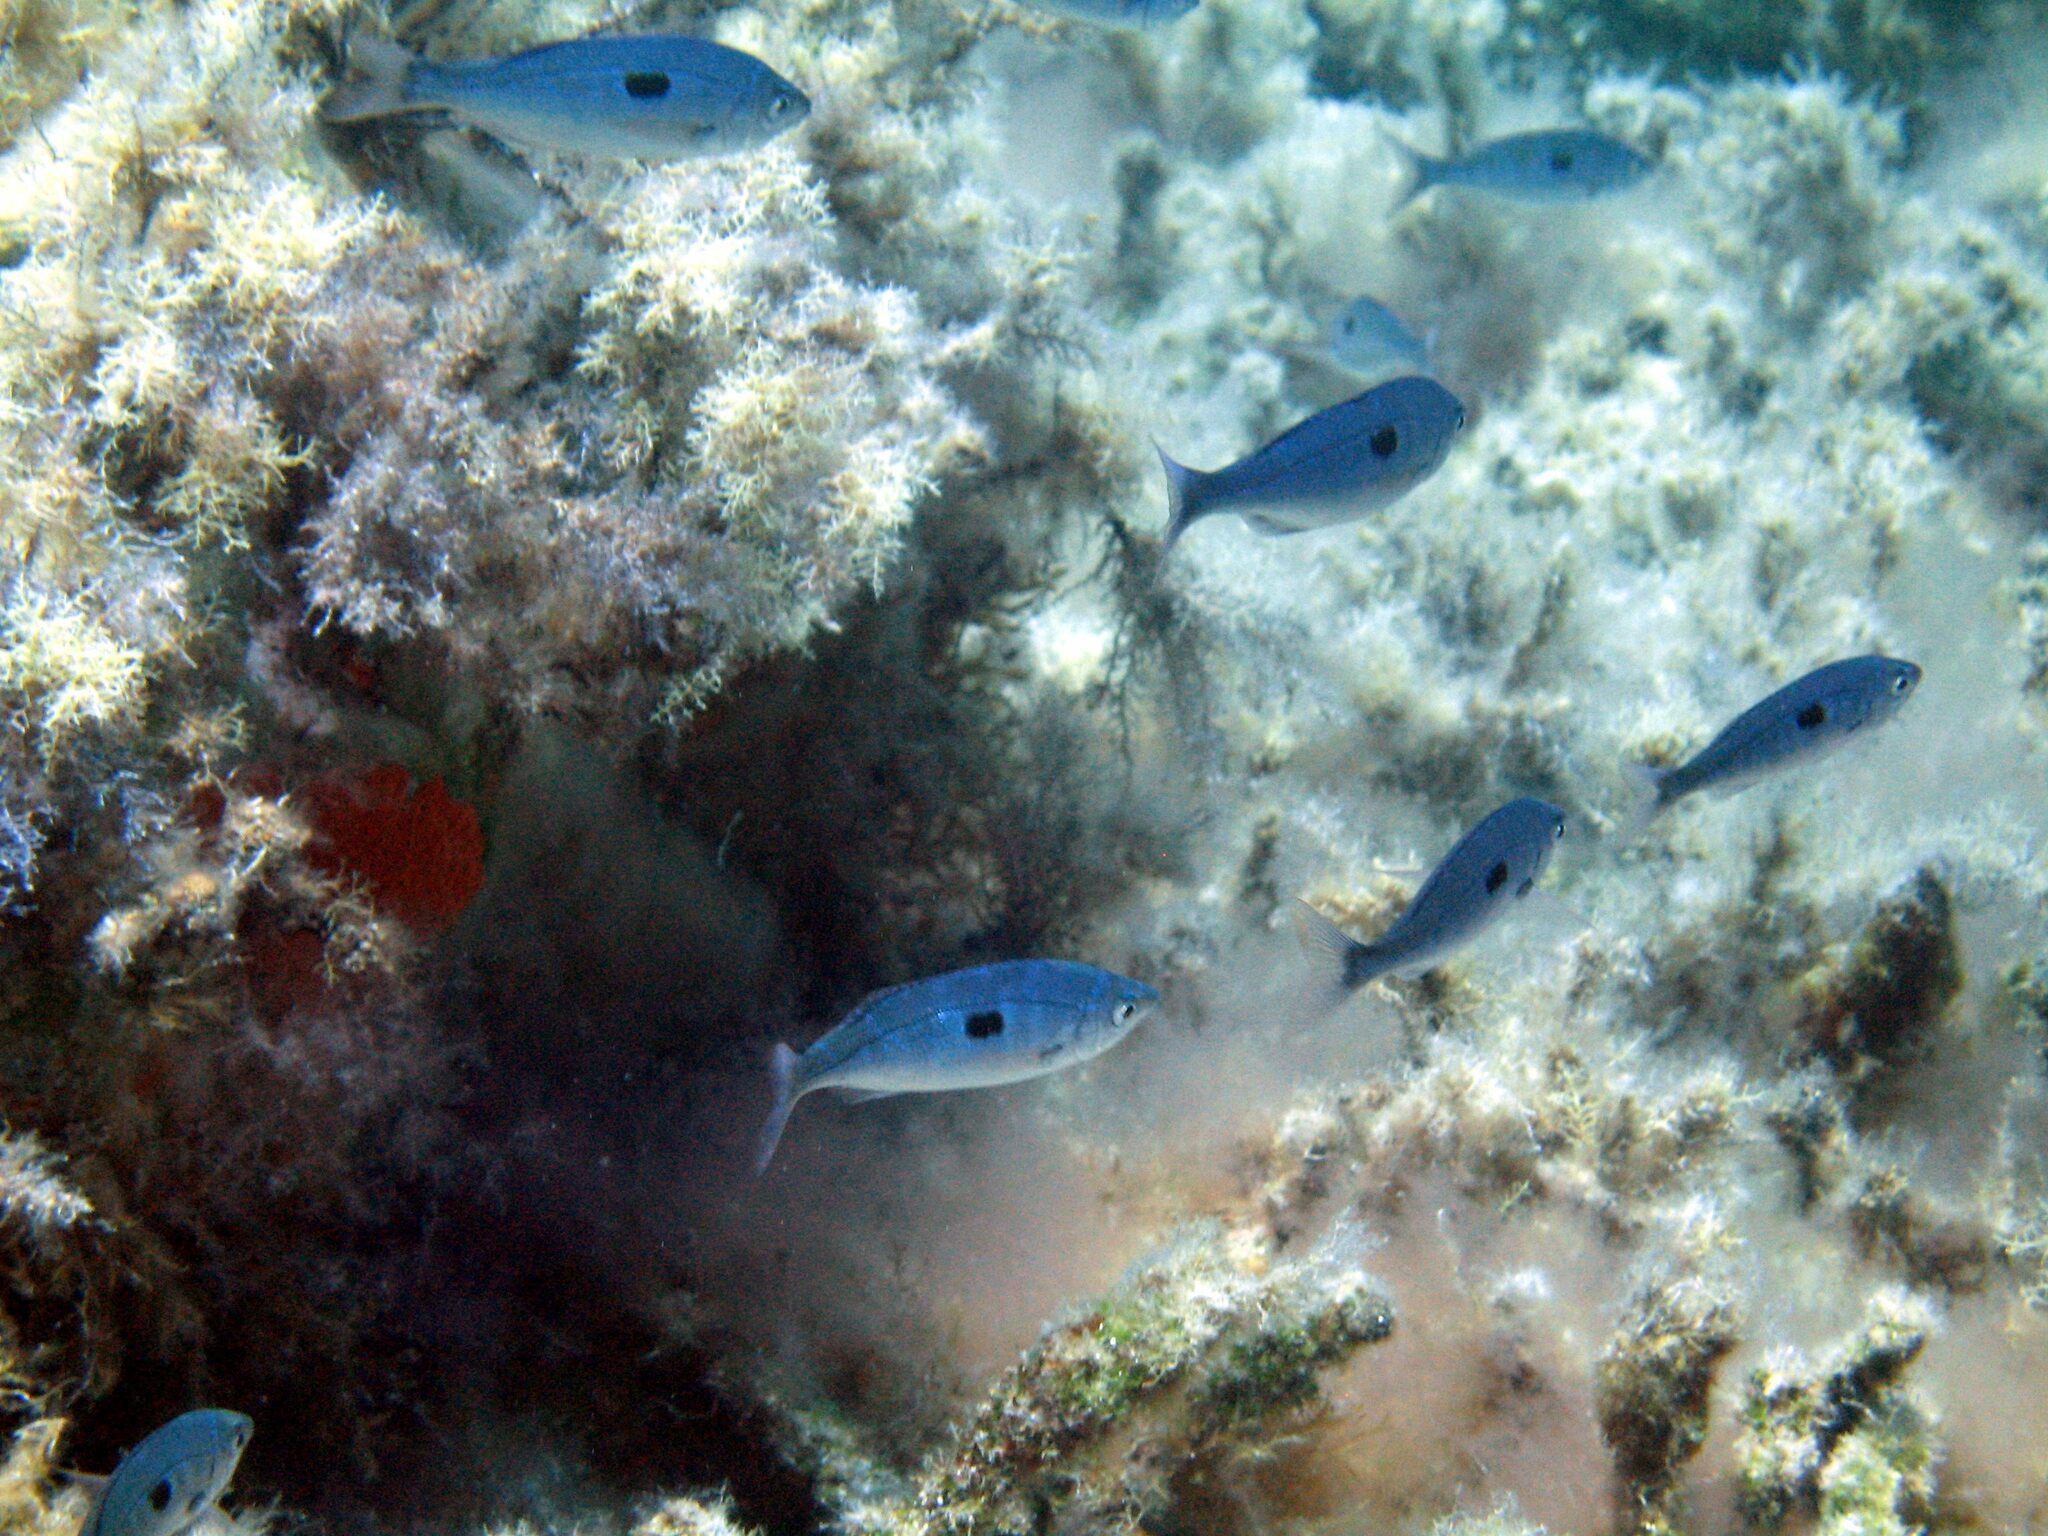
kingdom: Animalia
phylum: Chordata
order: Perciformes
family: Sparidae
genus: Spicara
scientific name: Spicara maena
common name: Blotched picarel
